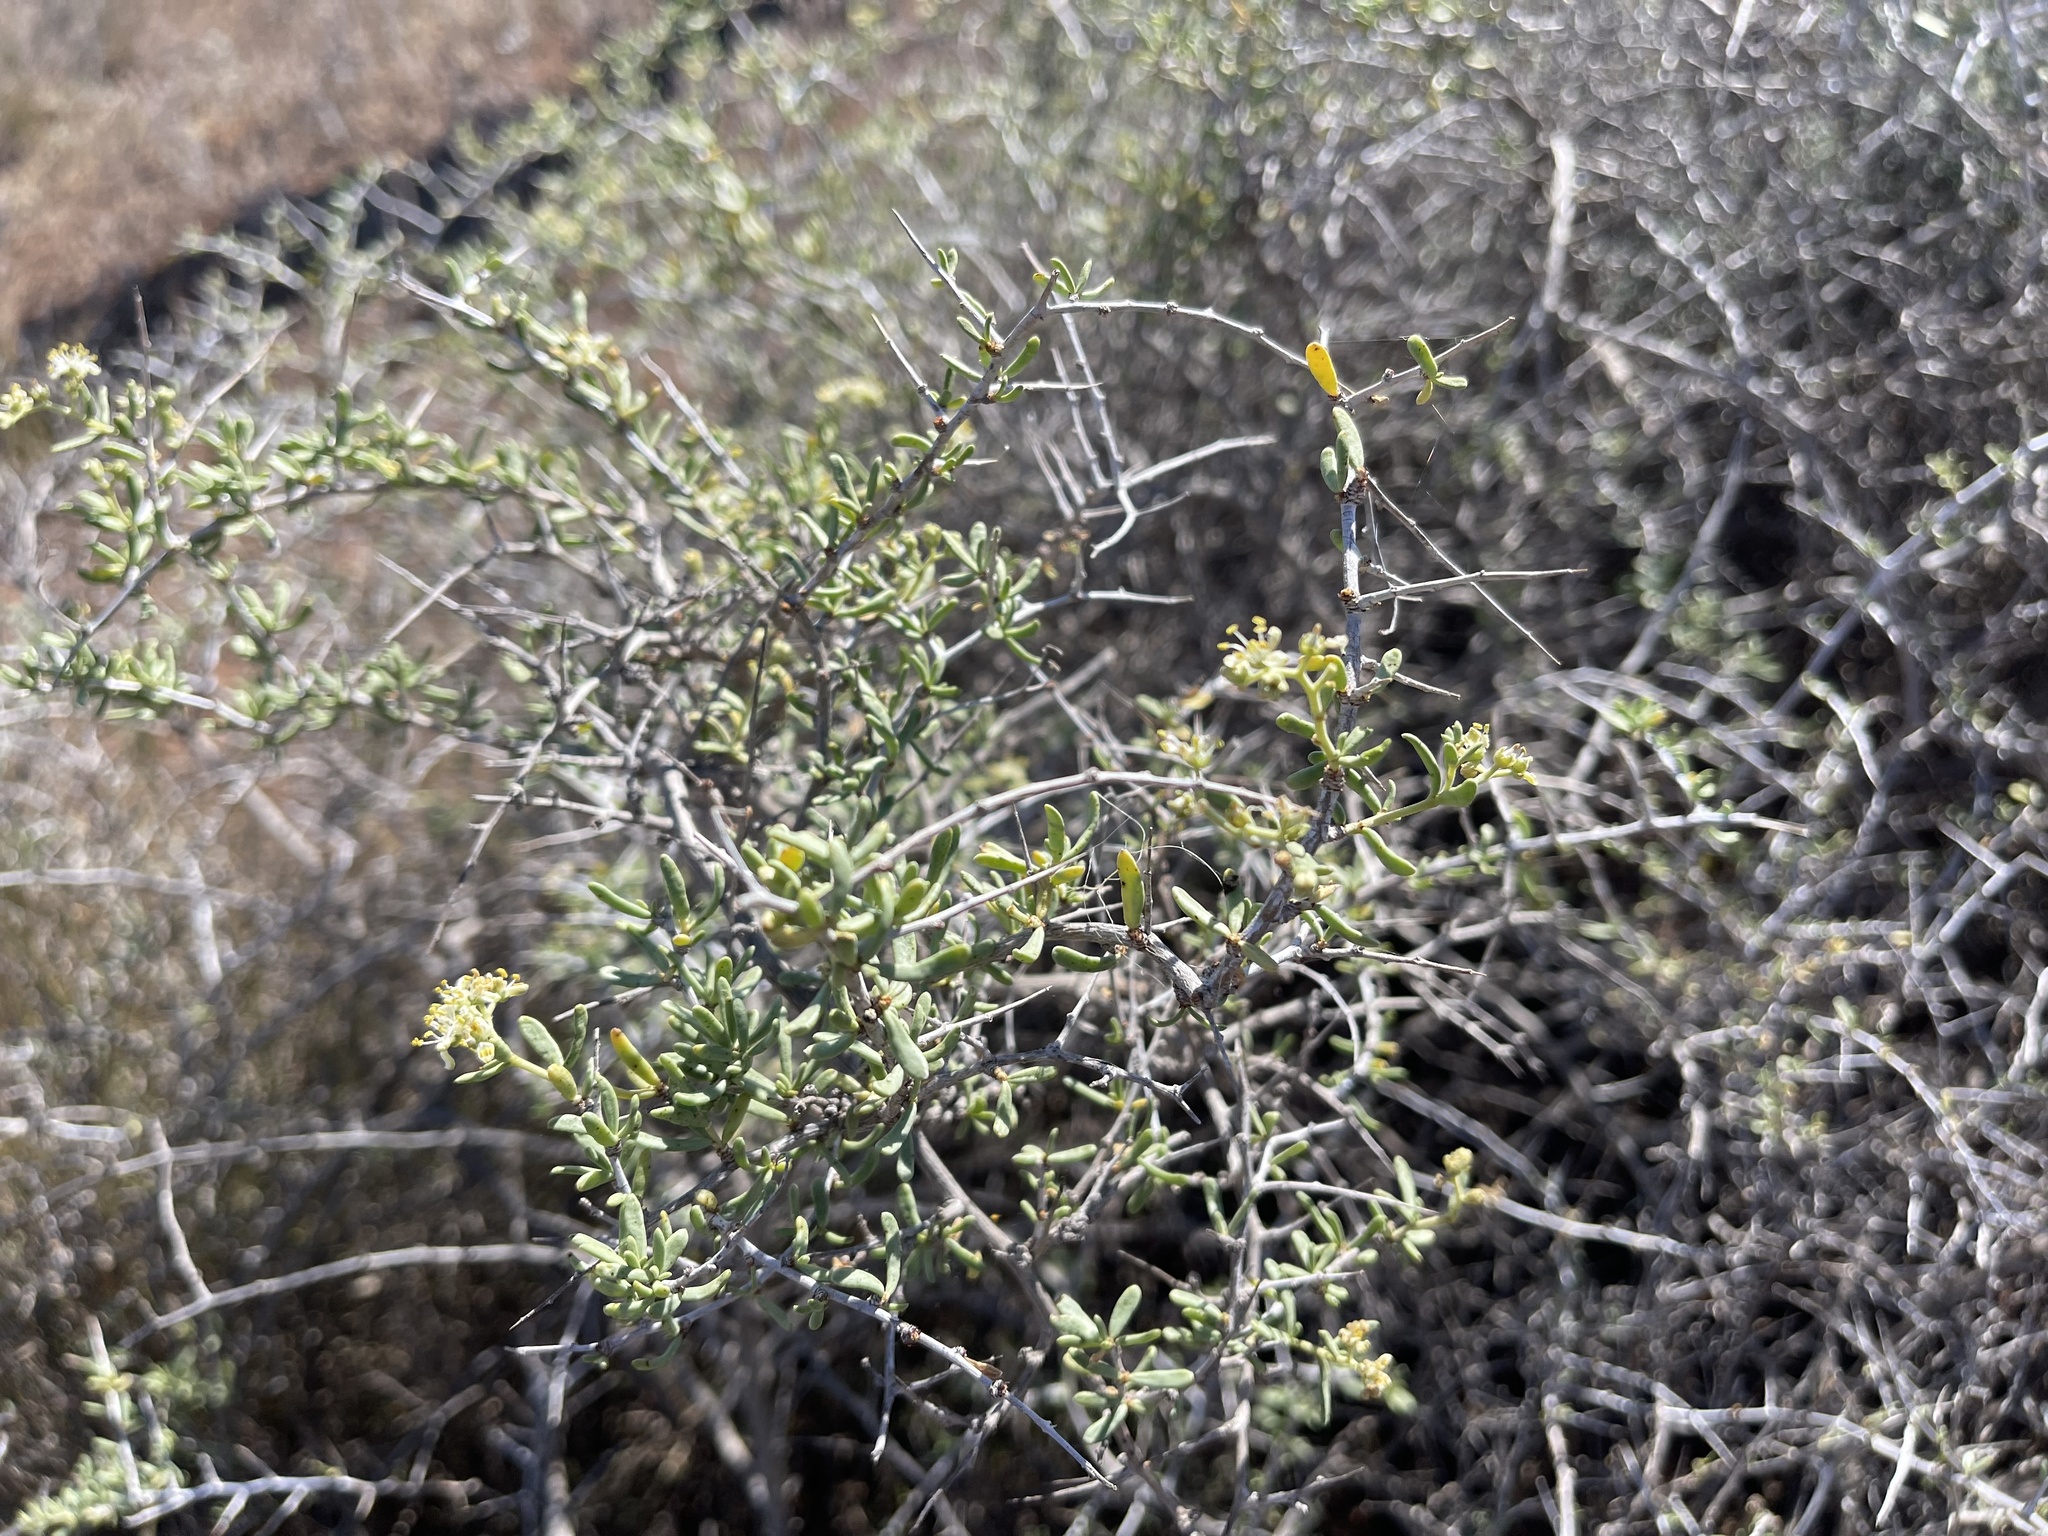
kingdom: Plantae
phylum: Tracheophyta
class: Magnoliopsida
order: Solanales
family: Solanaceae
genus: Lycium
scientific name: Lycium australe
